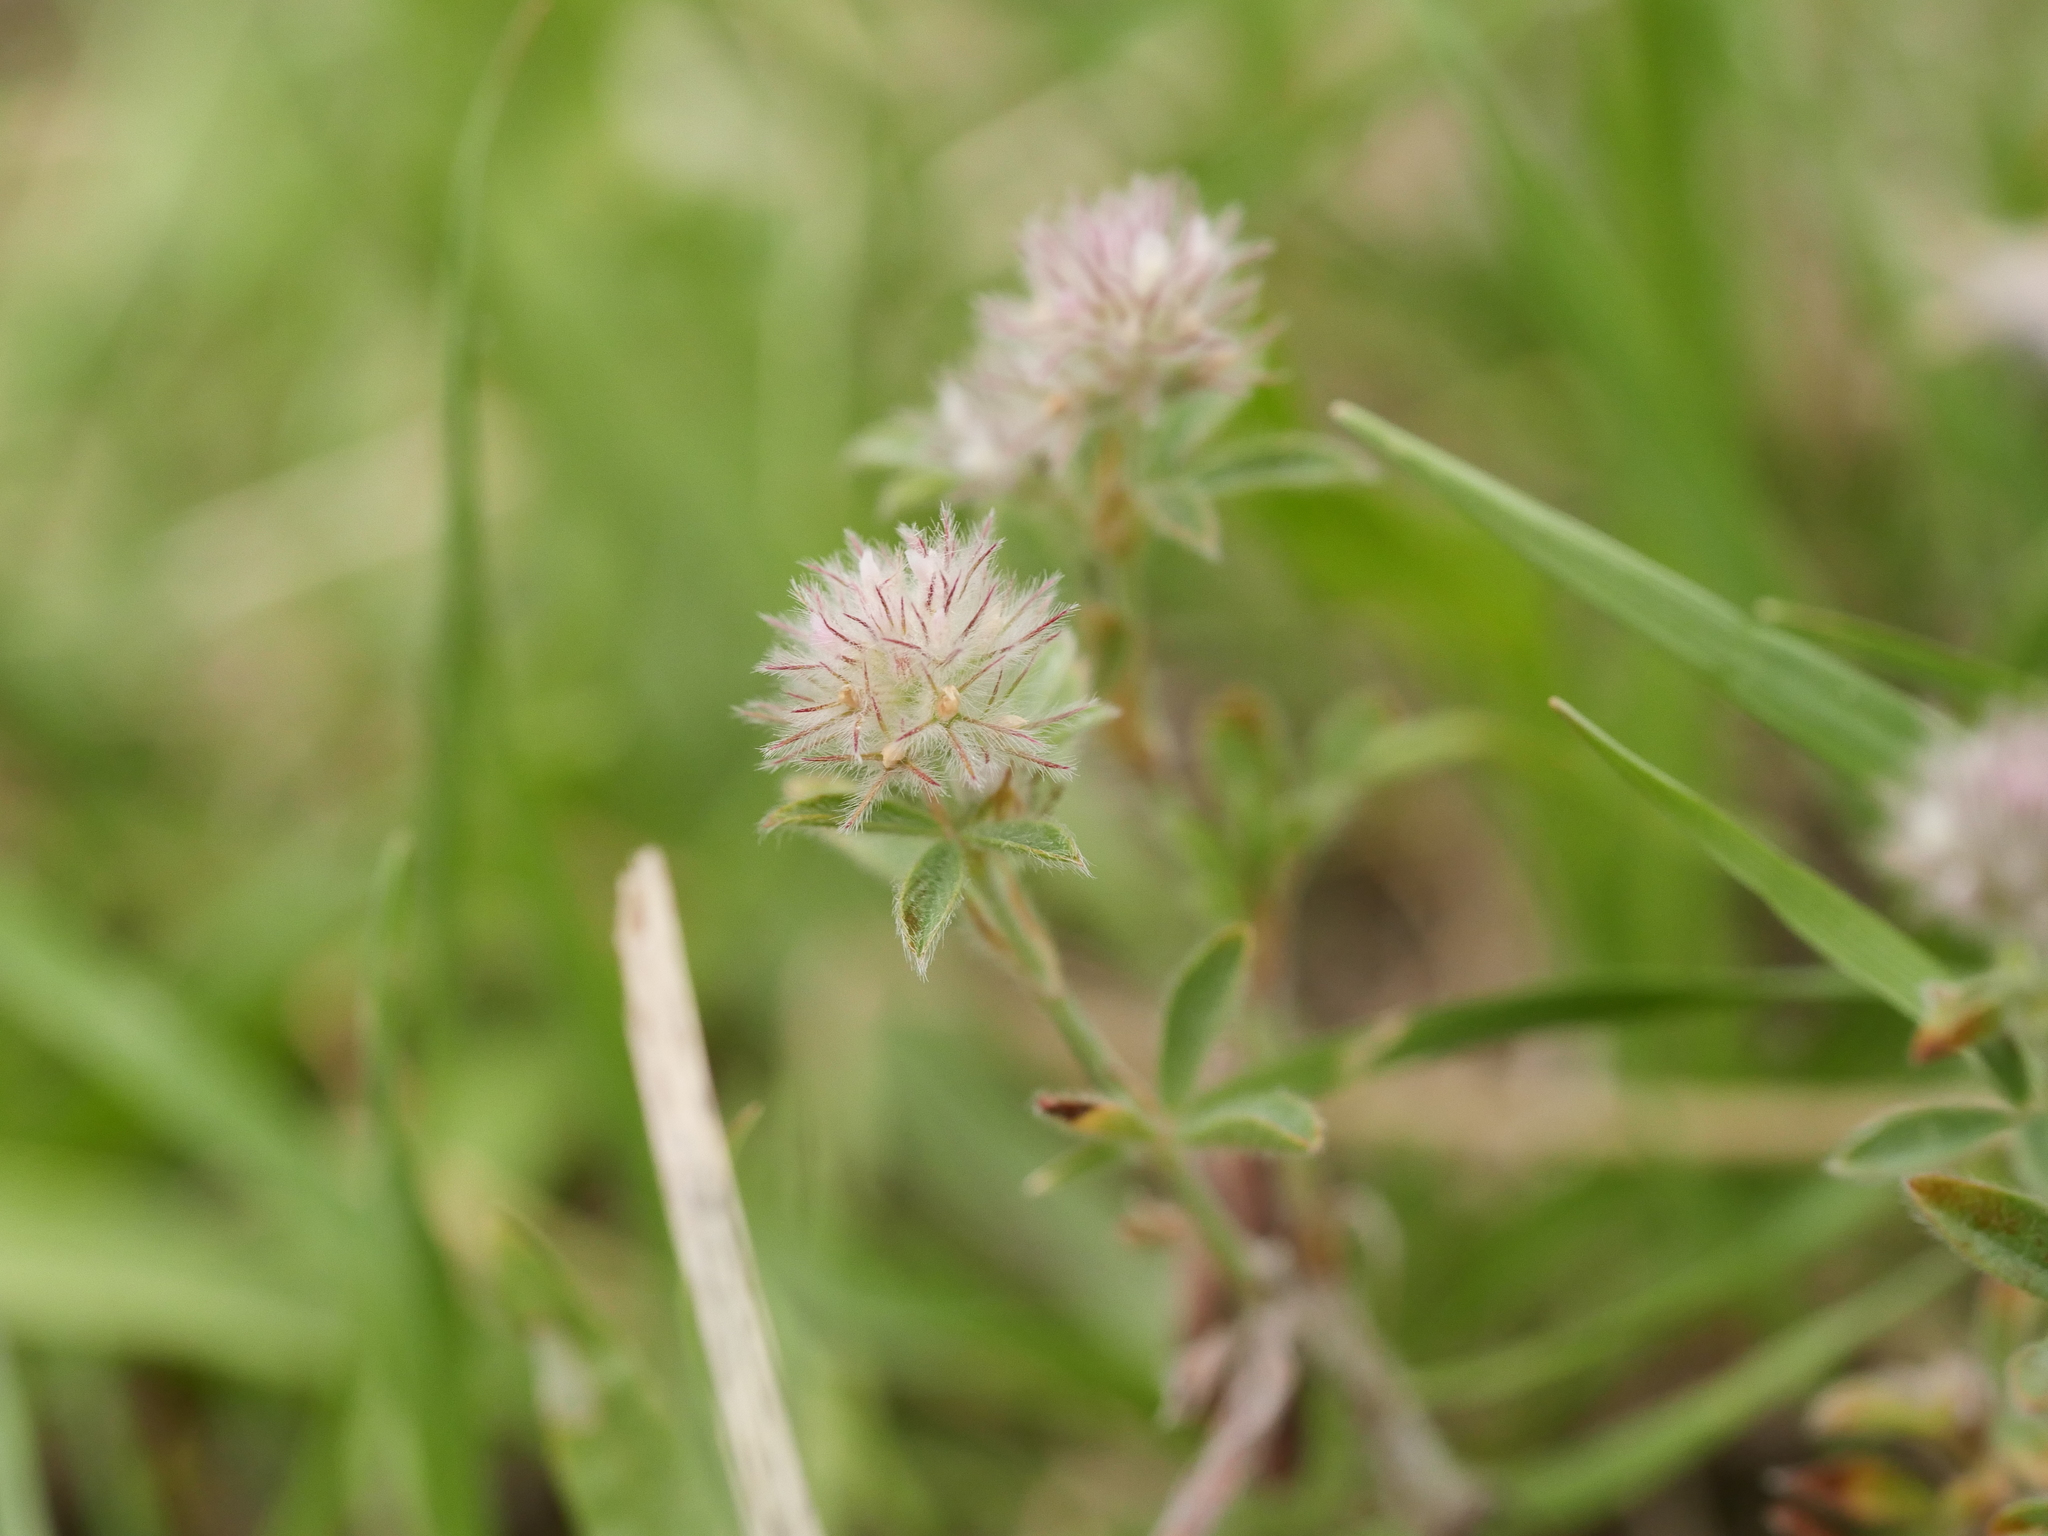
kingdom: Plantae
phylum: Tracheophyta
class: Magnoliopsida
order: Fabales
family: Fabaceae
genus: Trifolium
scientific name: Trifolium arvense
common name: Hare's-foot clover
